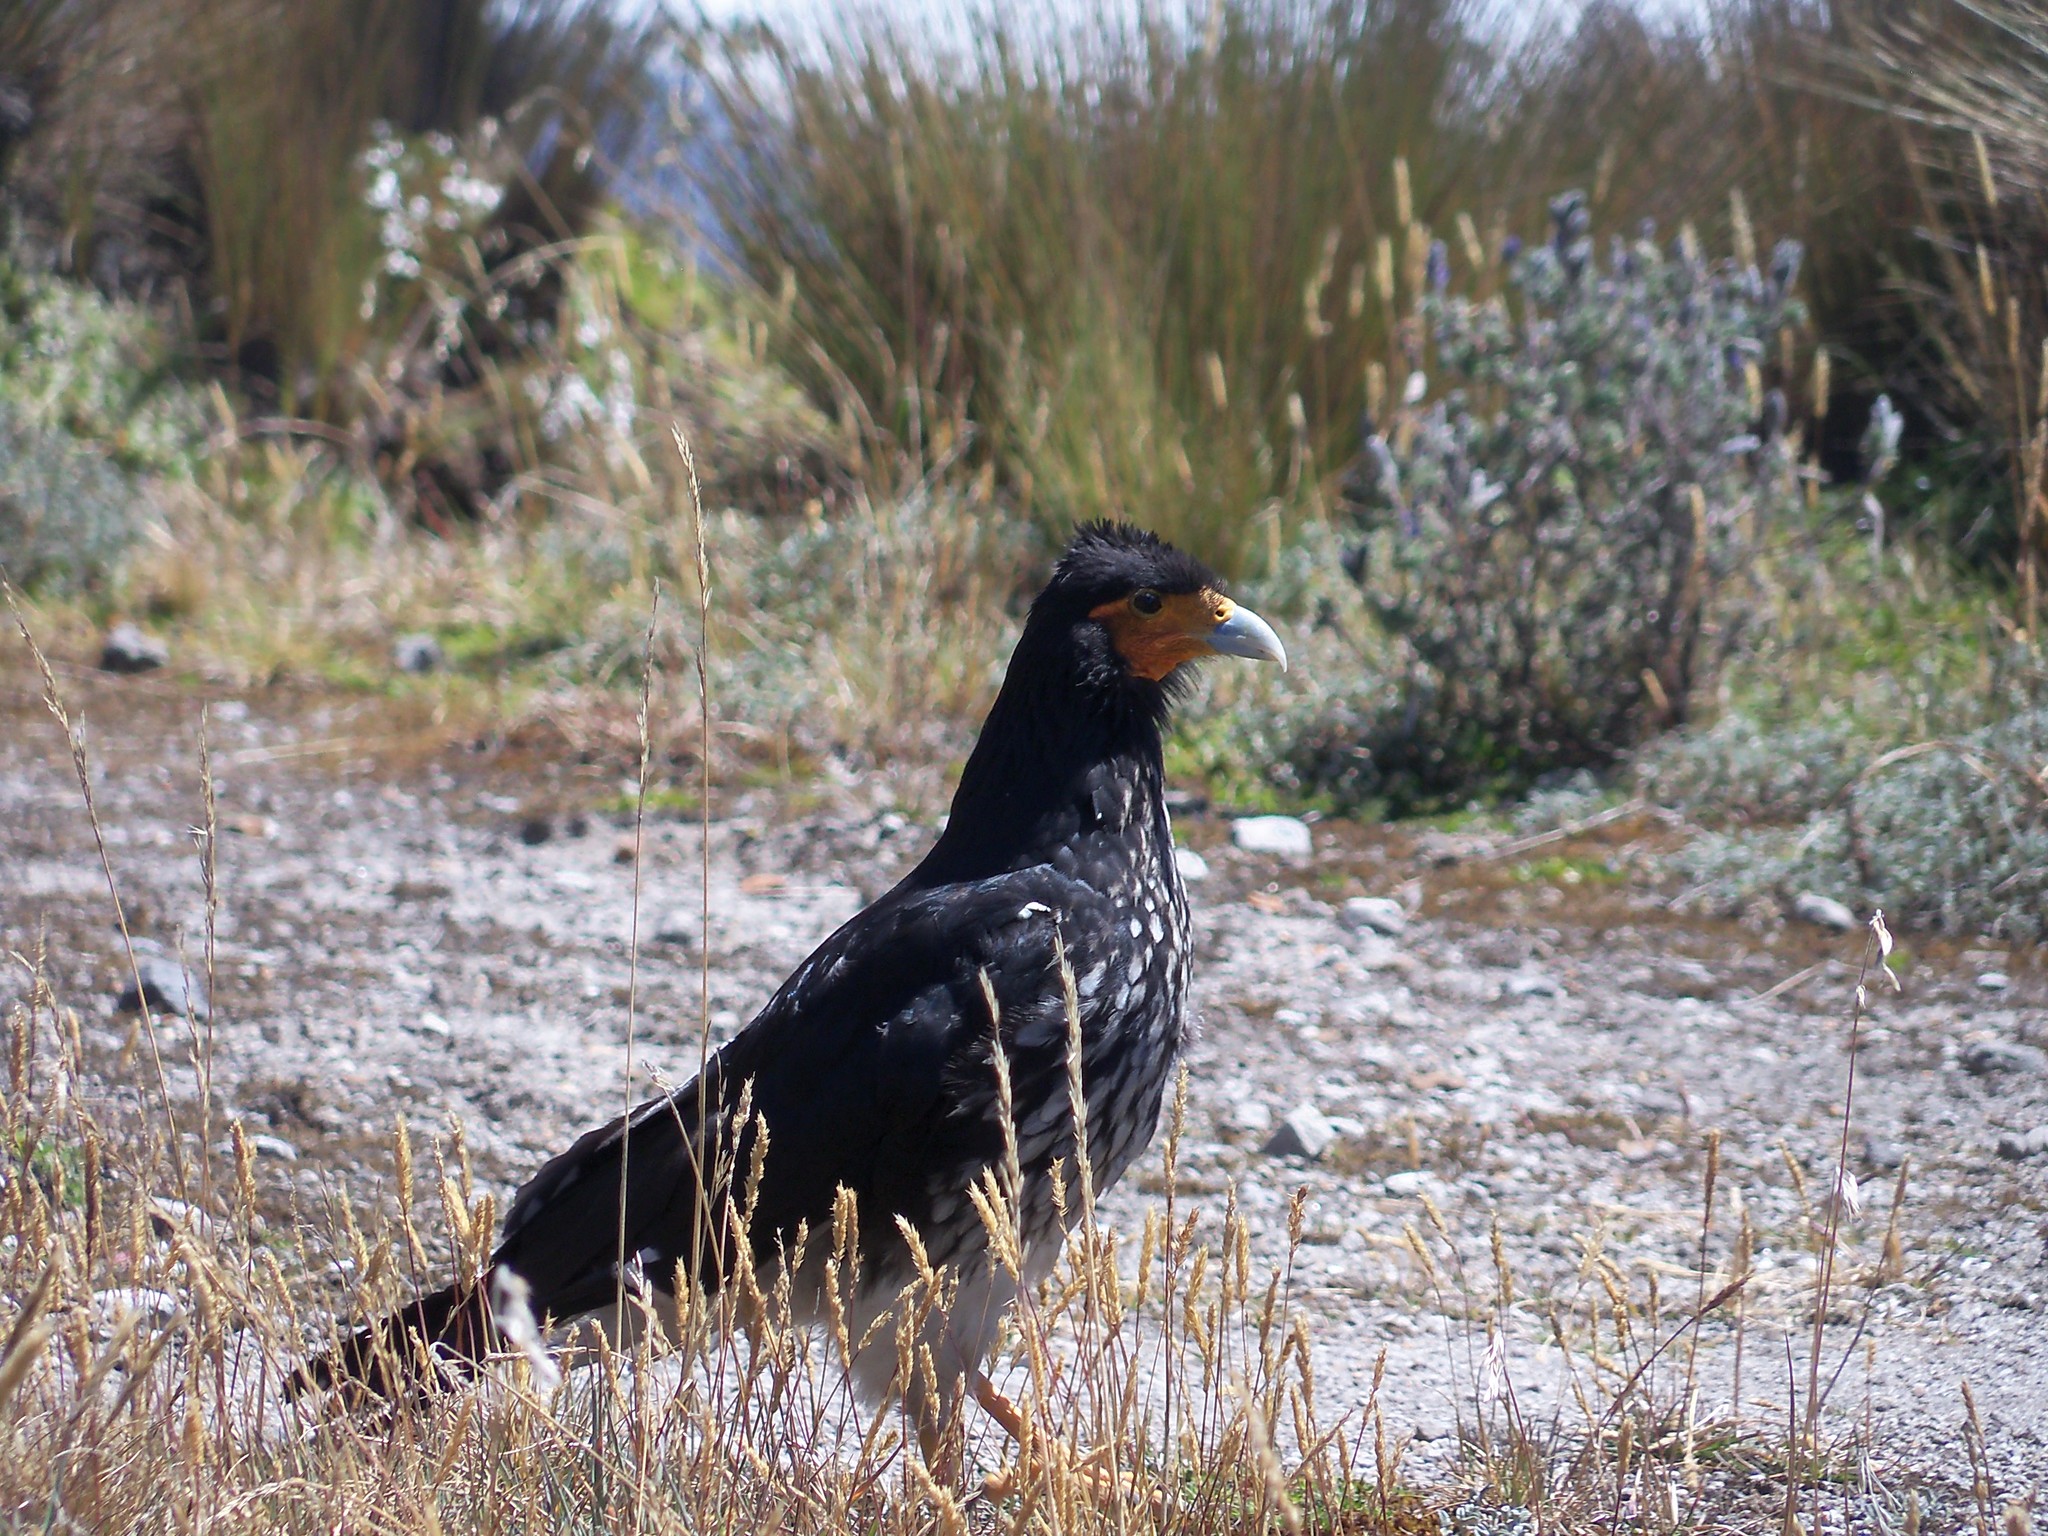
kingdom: Animalia
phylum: Chordata
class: Aves
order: Falconiformes
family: Falconidae
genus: Daptrius
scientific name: Daptrius
